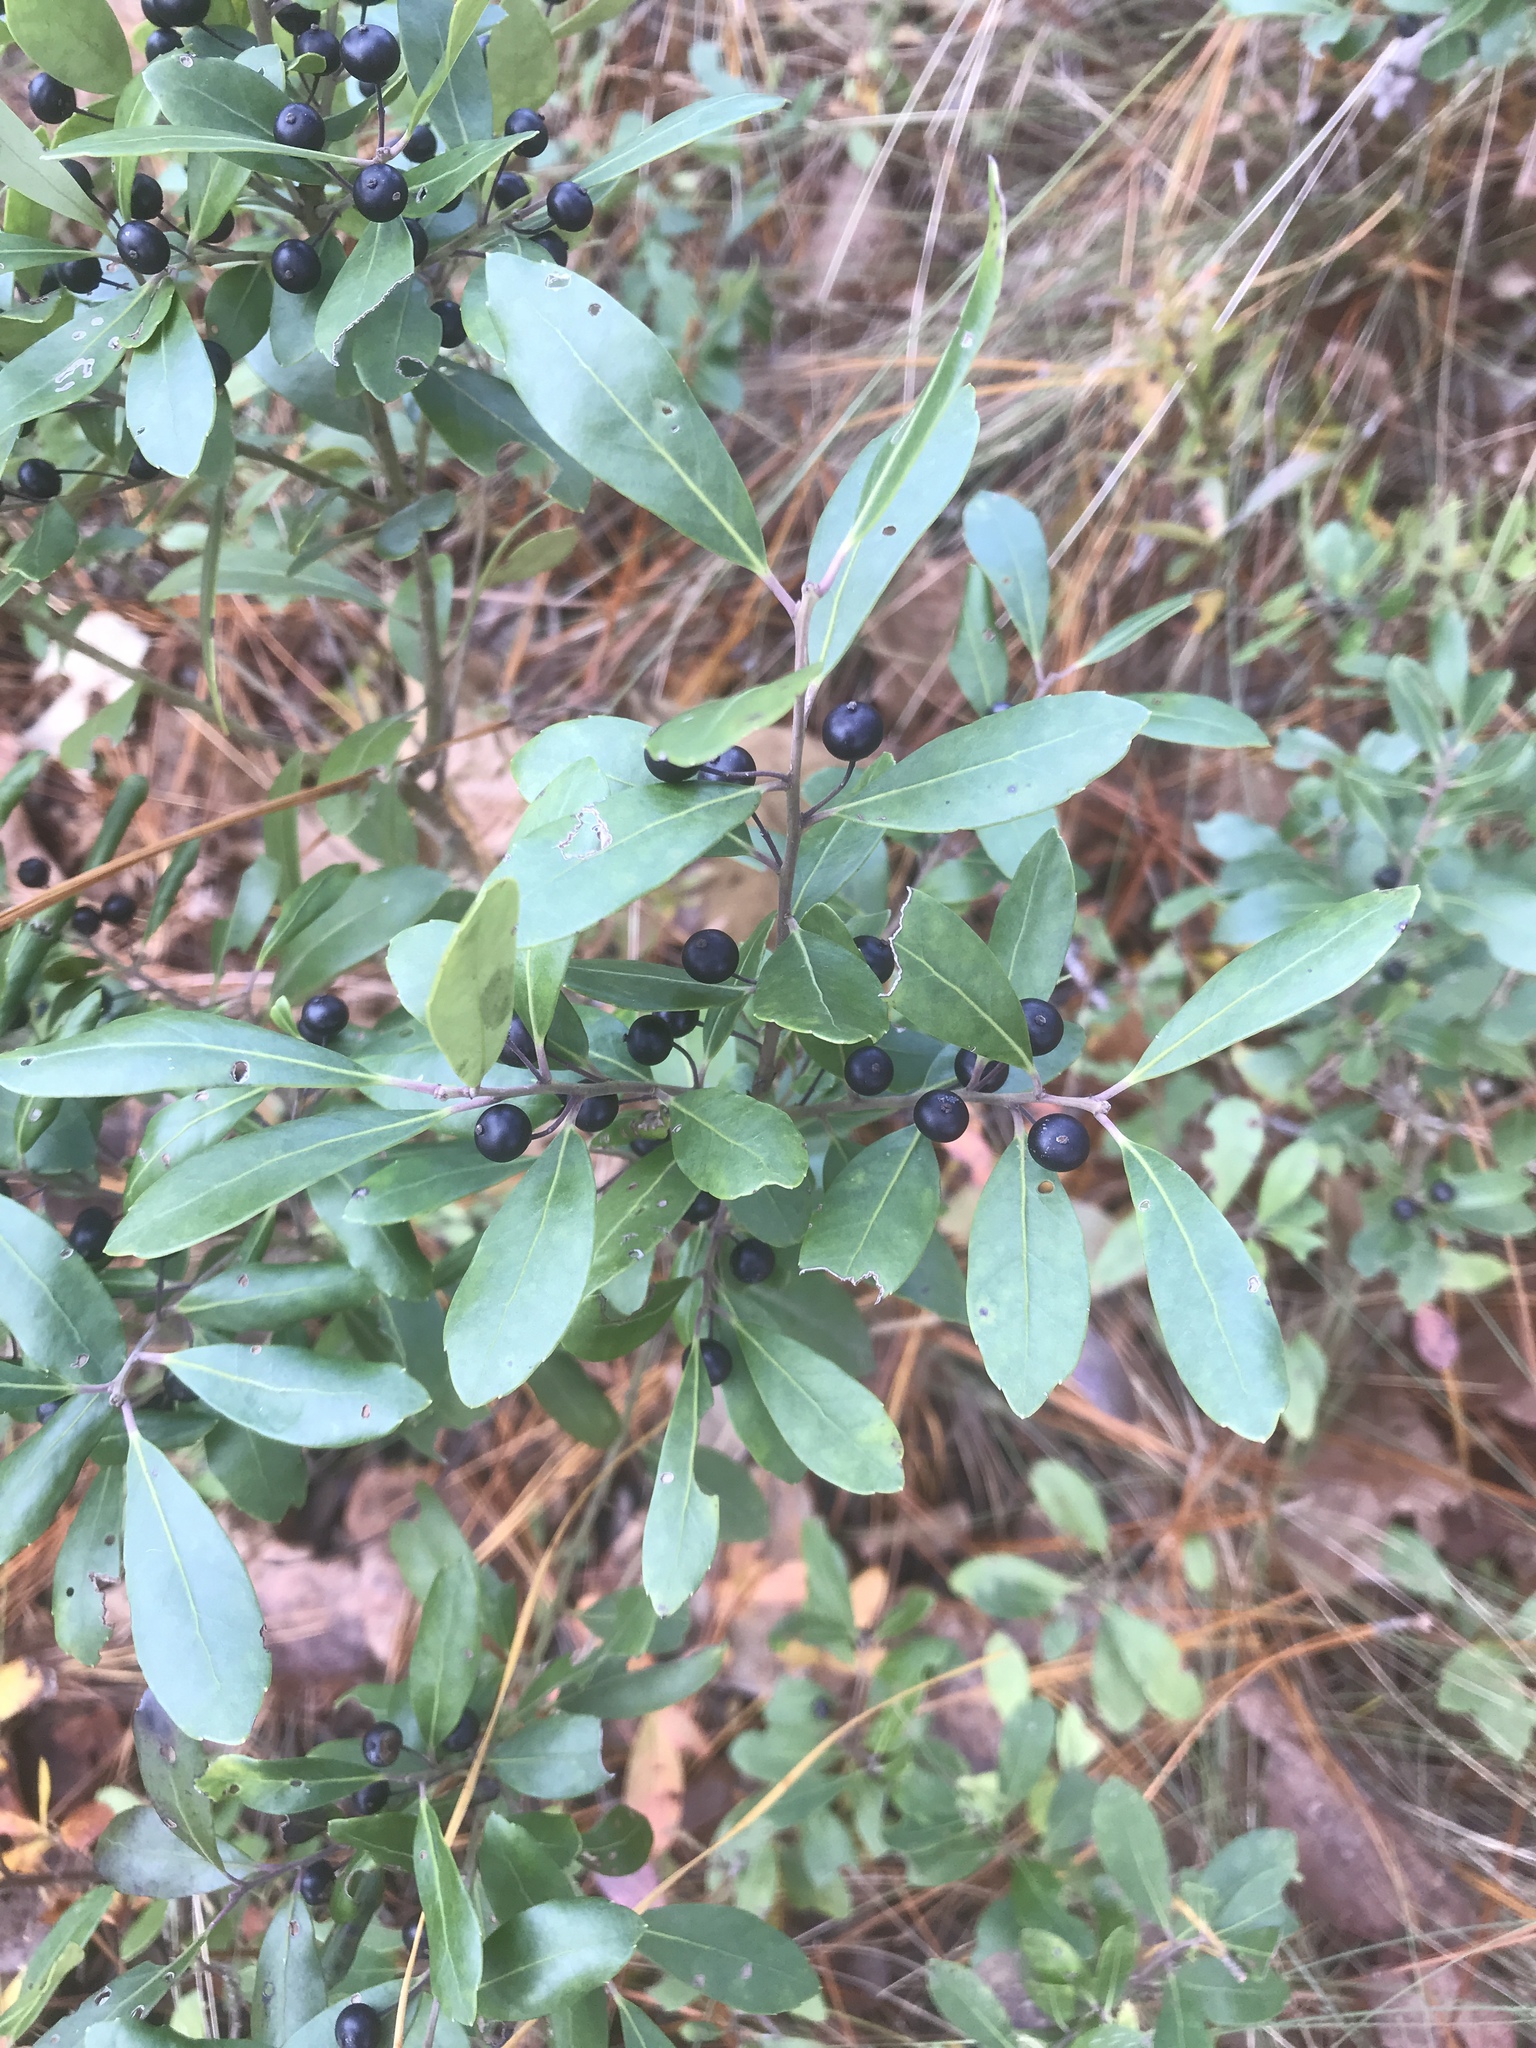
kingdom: Plantae
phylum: Tracheophyta
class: Magnoliopsida
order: Aquifoliales
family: Aquifoliaceae
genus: Ilex
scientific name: Ilex glabra
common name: Bitter gallberry
